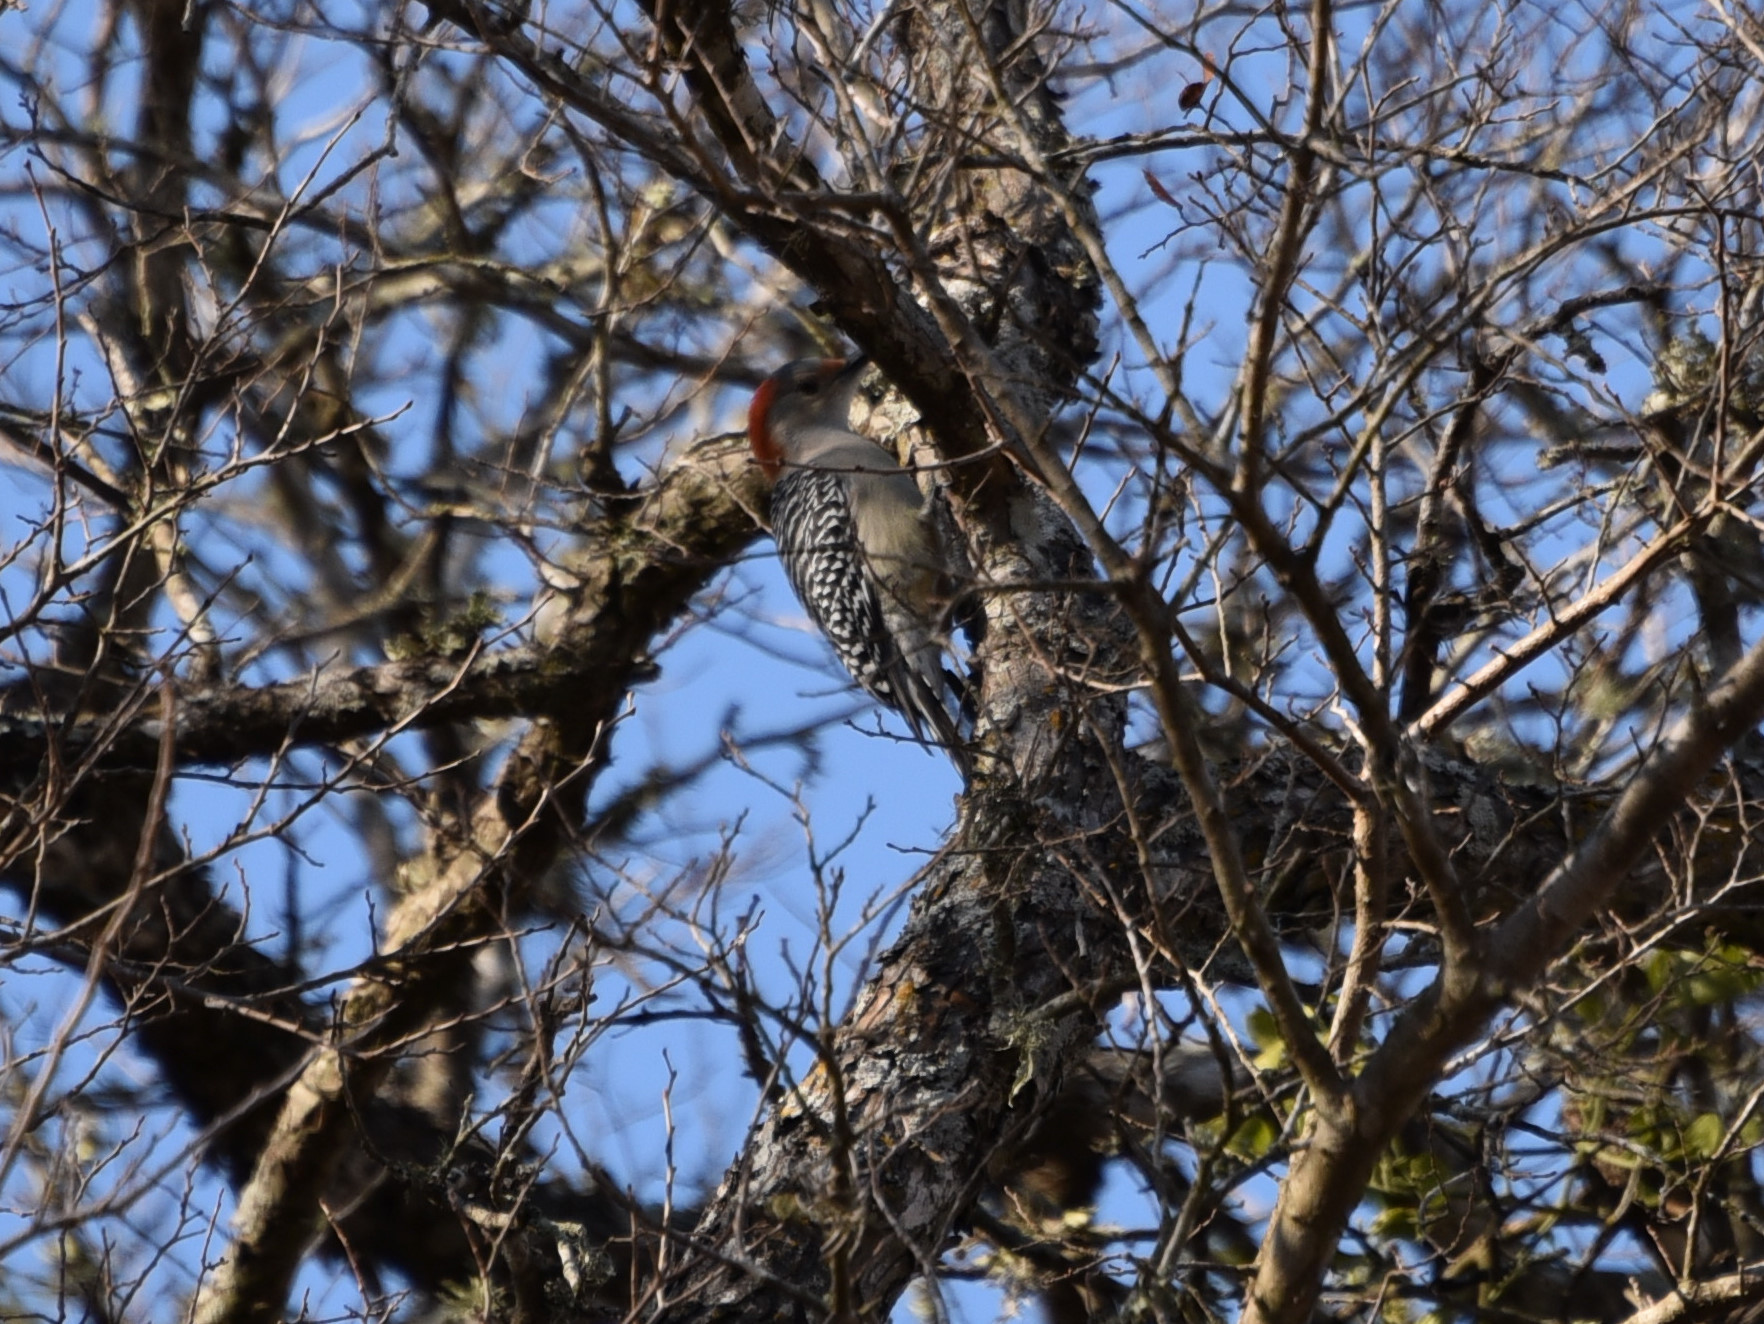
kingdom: Animalia
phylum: Chordata
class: Aves
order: Piciformes
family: Picidae
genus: Melanerpes
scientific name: Melanerpes carolinus
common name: Red-bellied woodpecker
